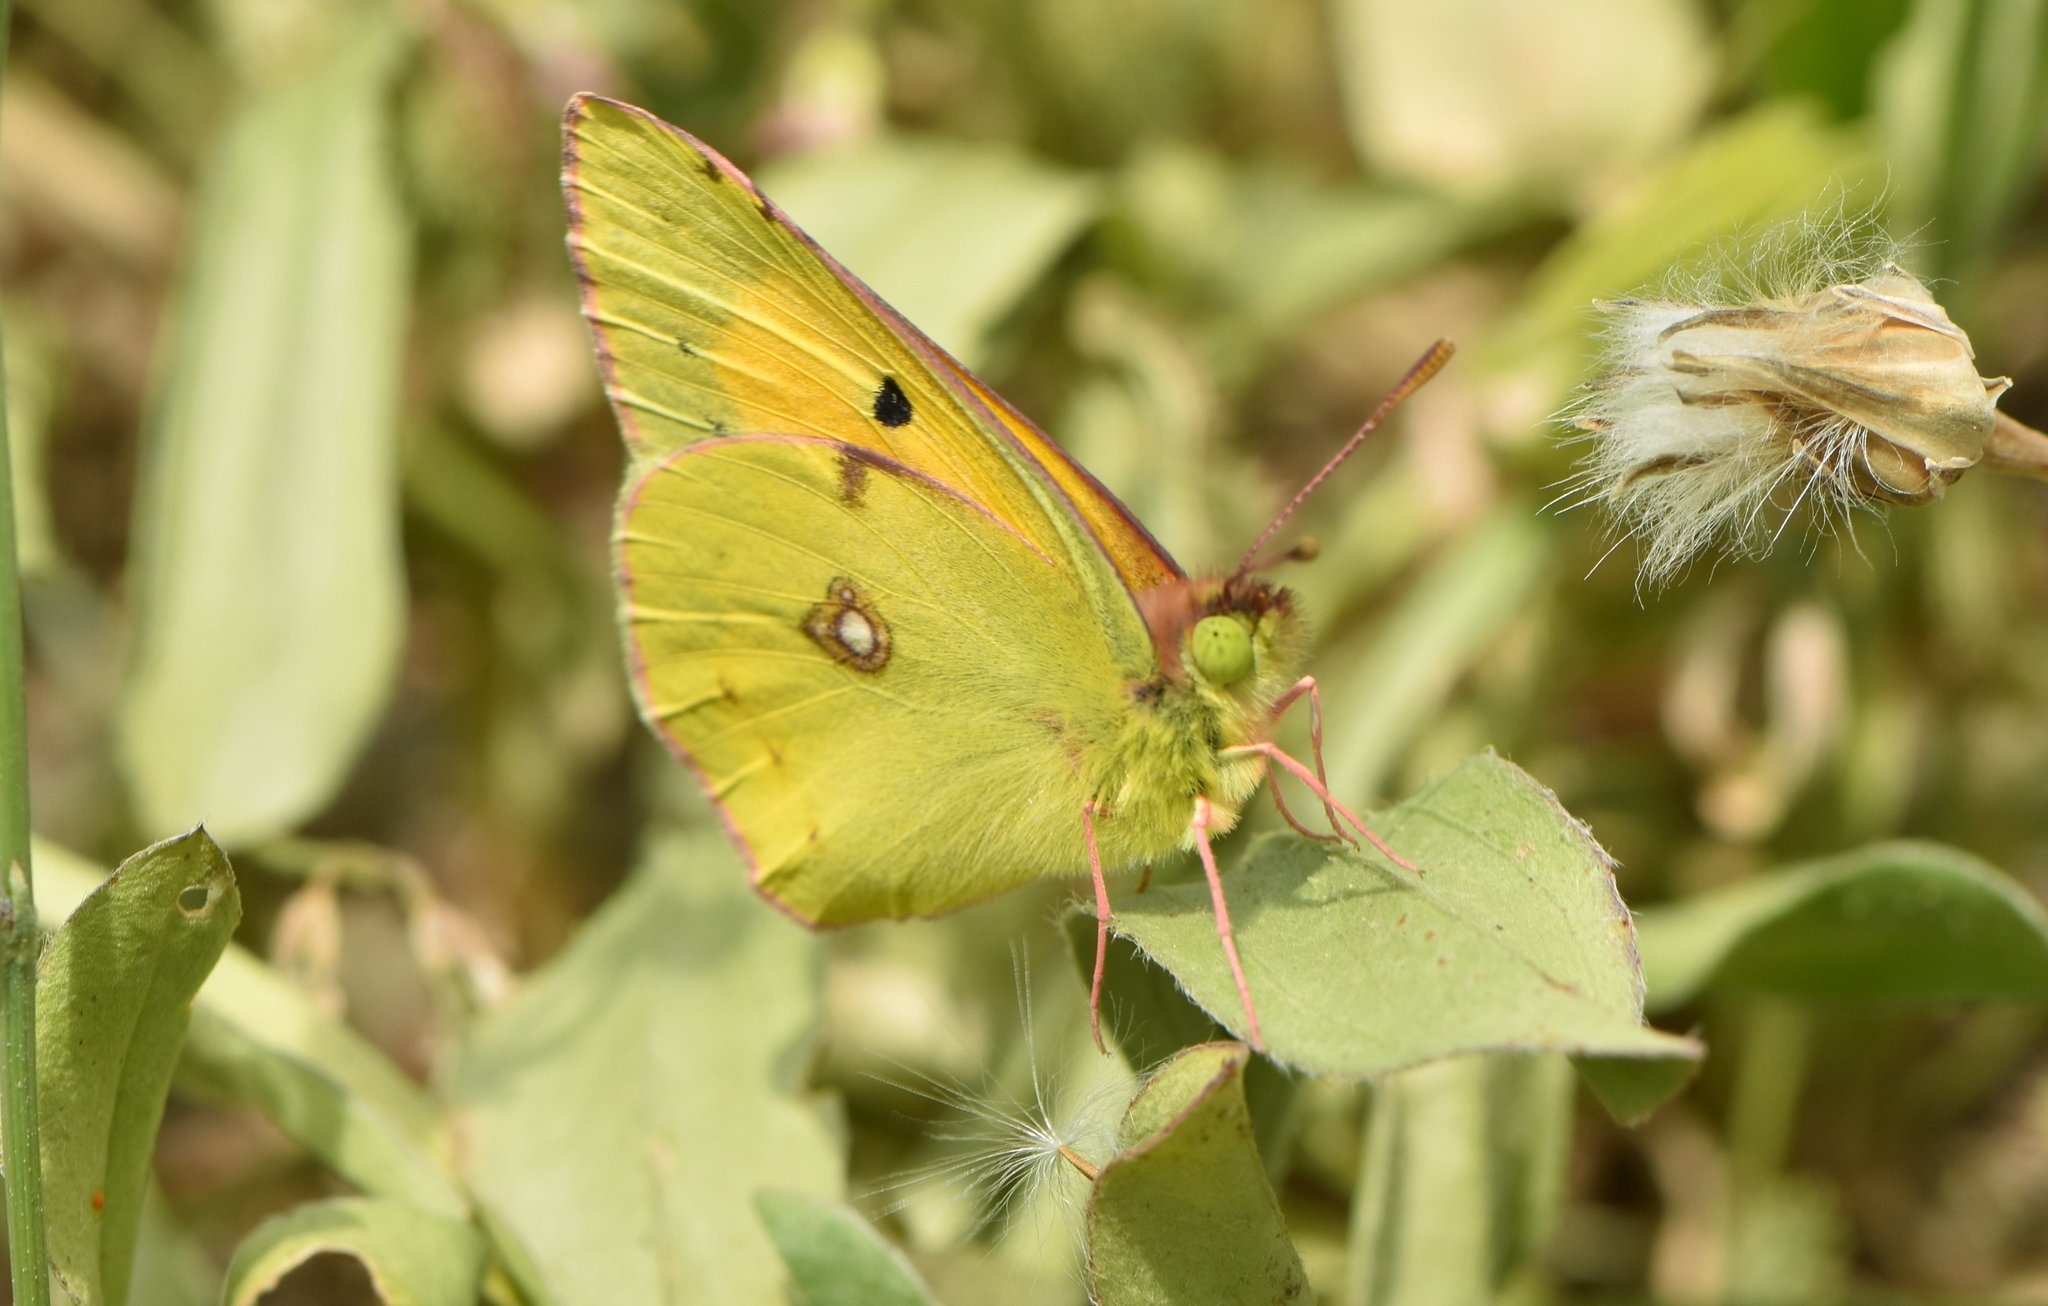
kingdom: Animalia
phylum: Arthropoda
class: Insecta
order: Lepidoptera
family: Pieridae
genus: Colias
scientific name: Colias croceus
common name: Clouded yellow
